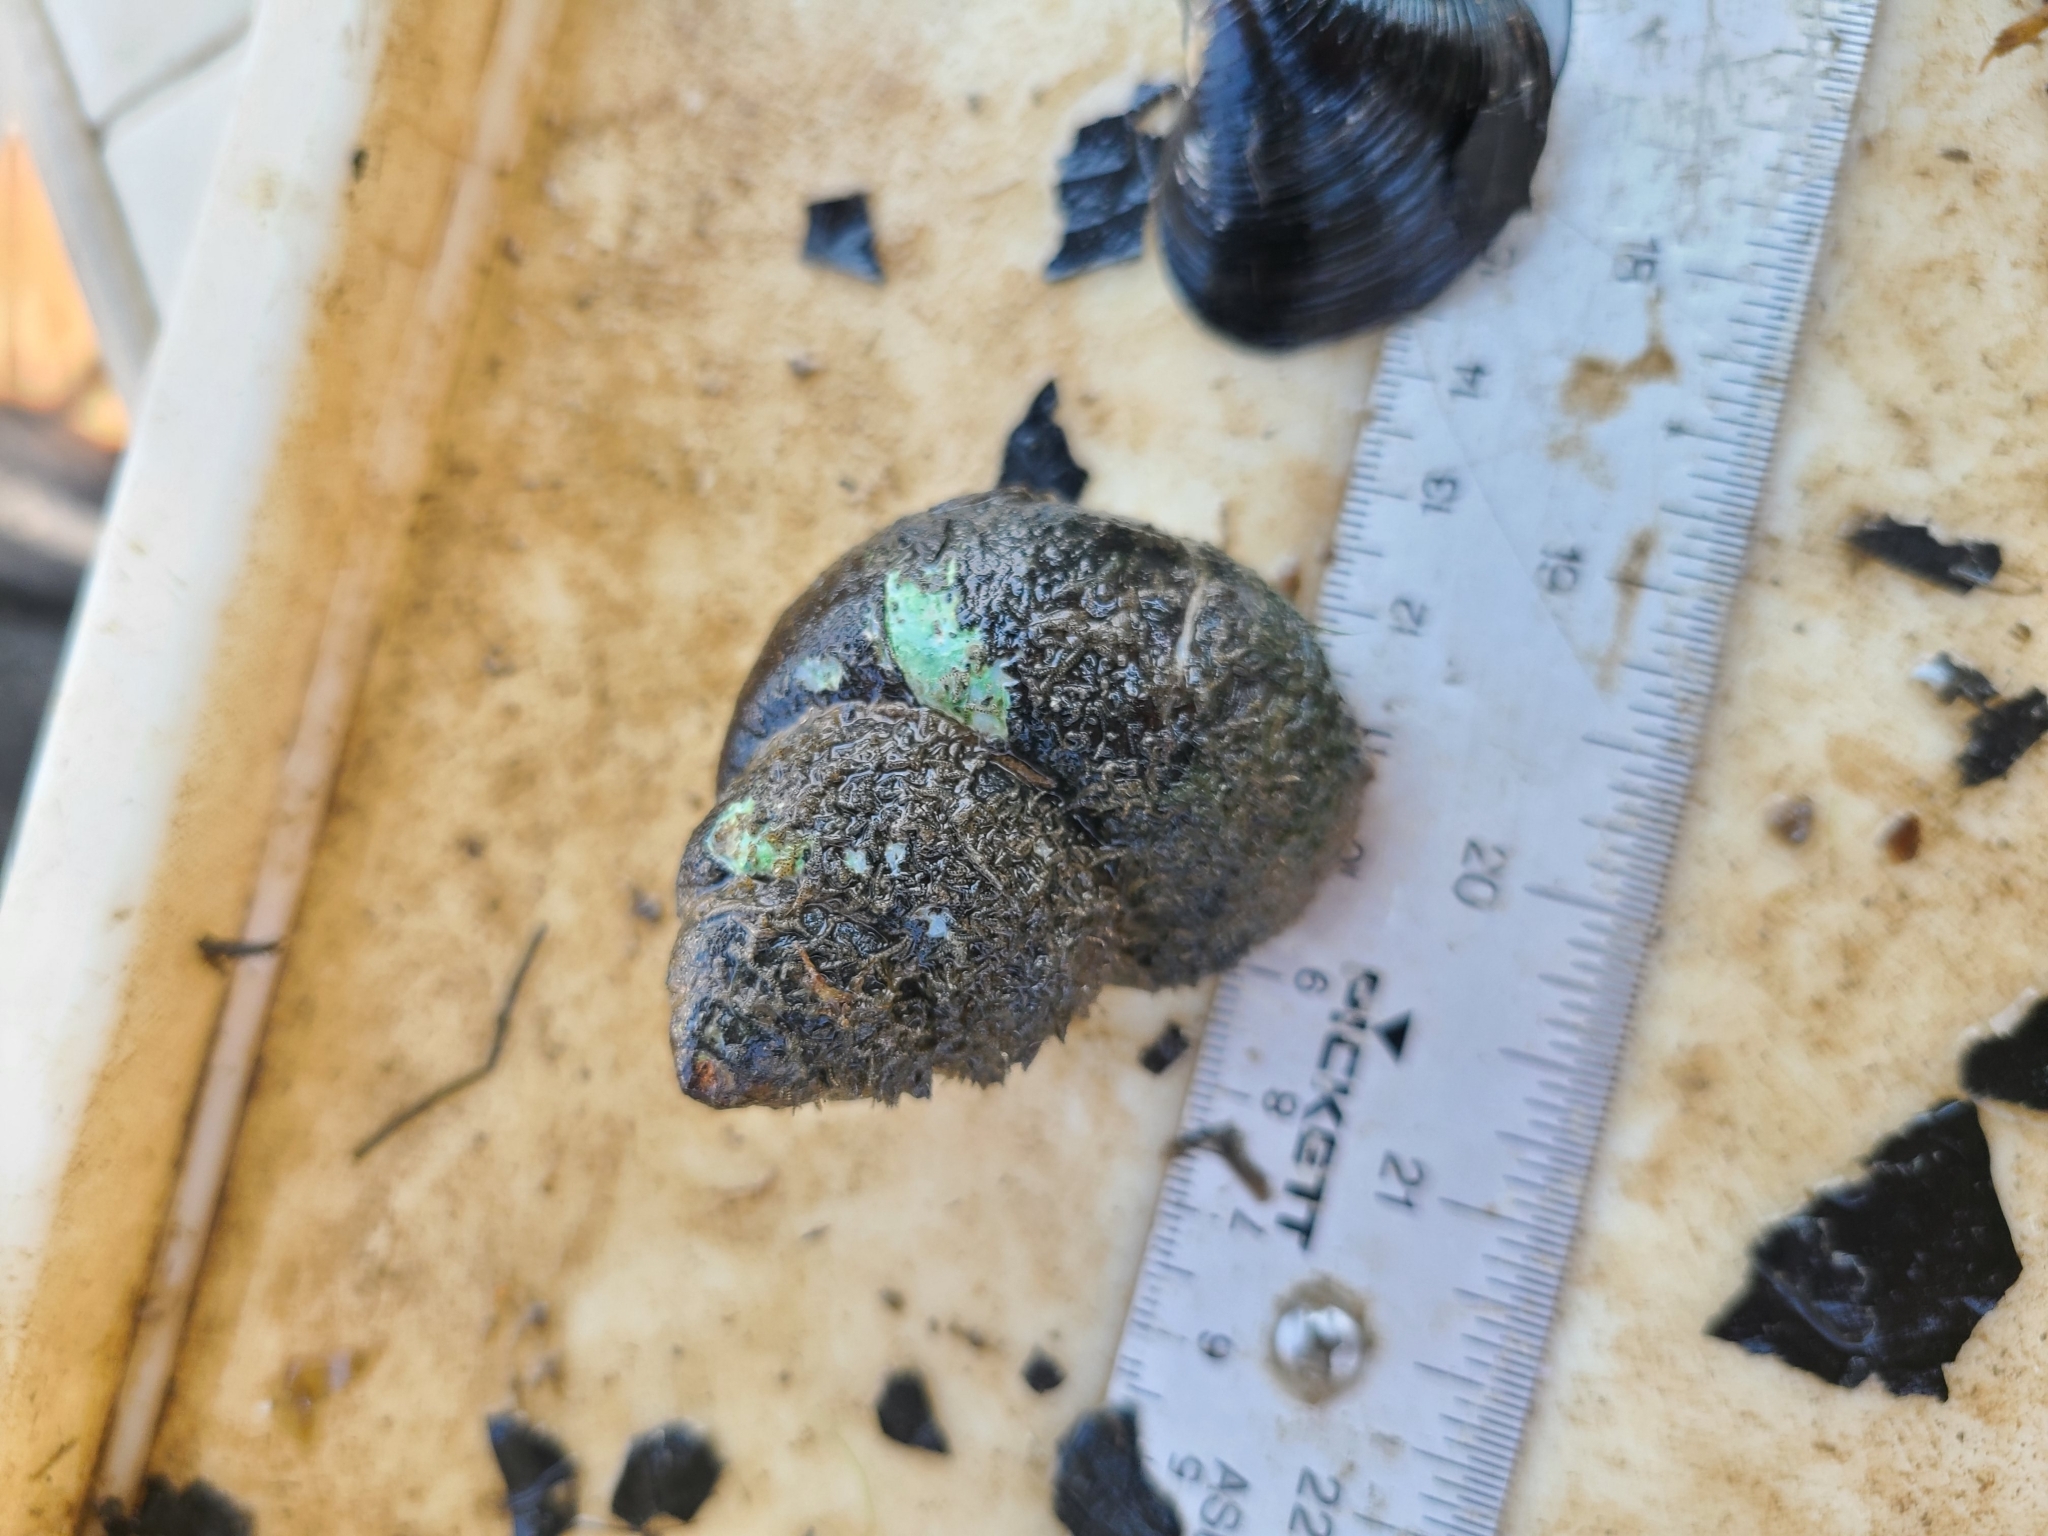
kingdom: Animalia
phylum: Mollusca
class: Gastropoda
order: Architaenioglossa
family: Viviparidae
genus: Cipangopaludina
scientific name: Cipangopaludina chinensis
